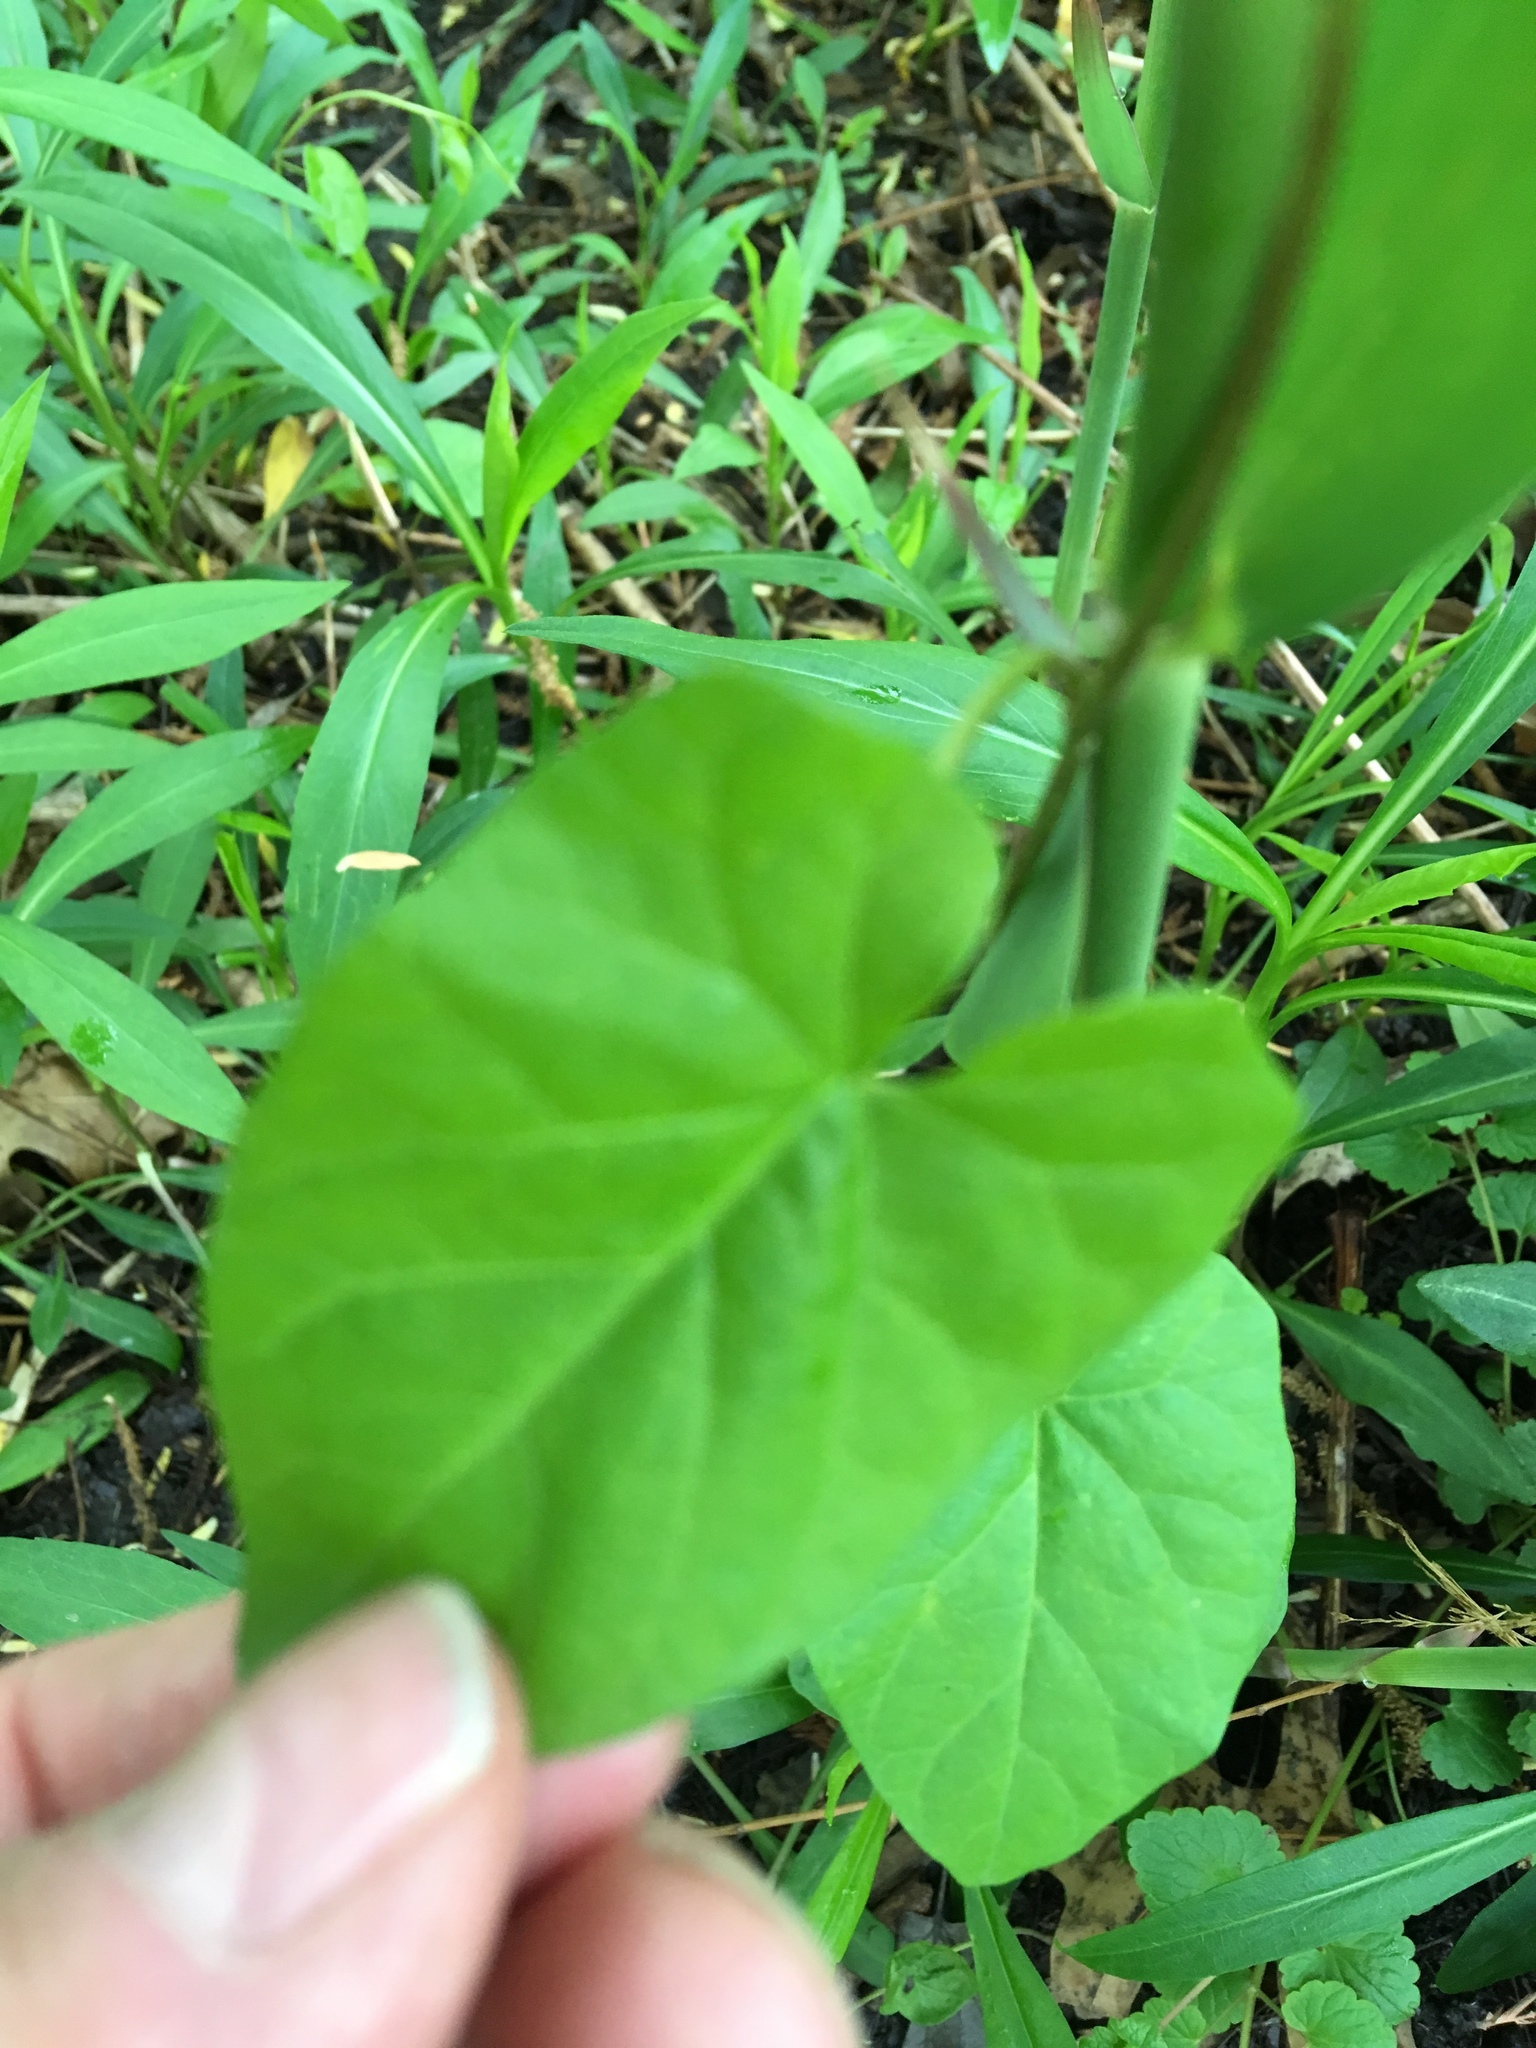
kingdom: Plantae
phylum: Tracheophyta
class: Magnoliopsida
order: Solanales
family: Convolvulaceae
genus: Calystegia
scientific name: Calystegia sepium
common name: Hedge bindweed
